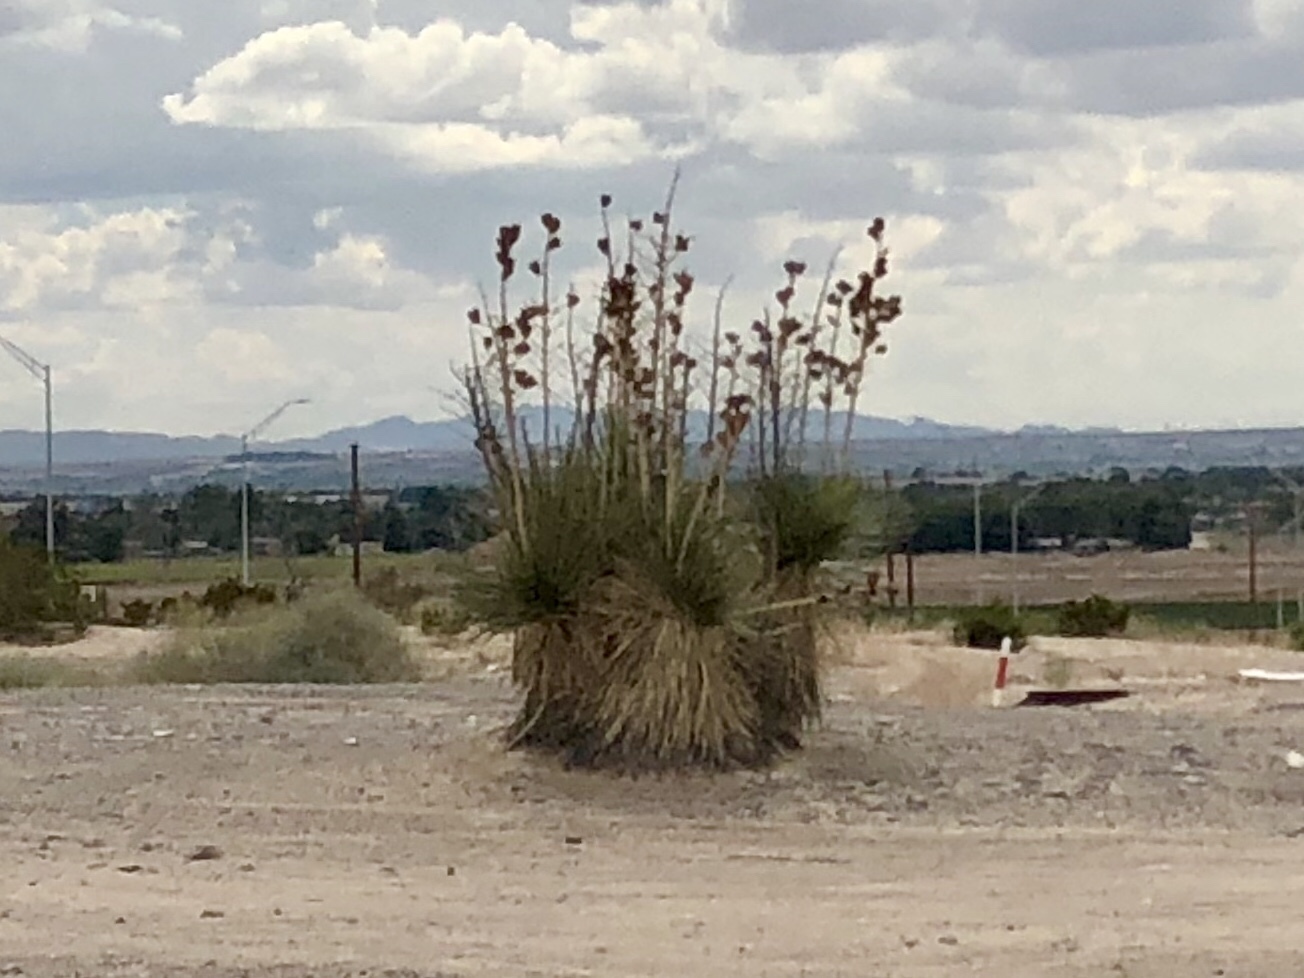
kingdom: Plantae
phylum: Tracheophyta
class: Liliopsida
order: Asparagales
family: Asparagaceae
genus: Yucca
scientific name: Yucca elata
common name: Palmella
